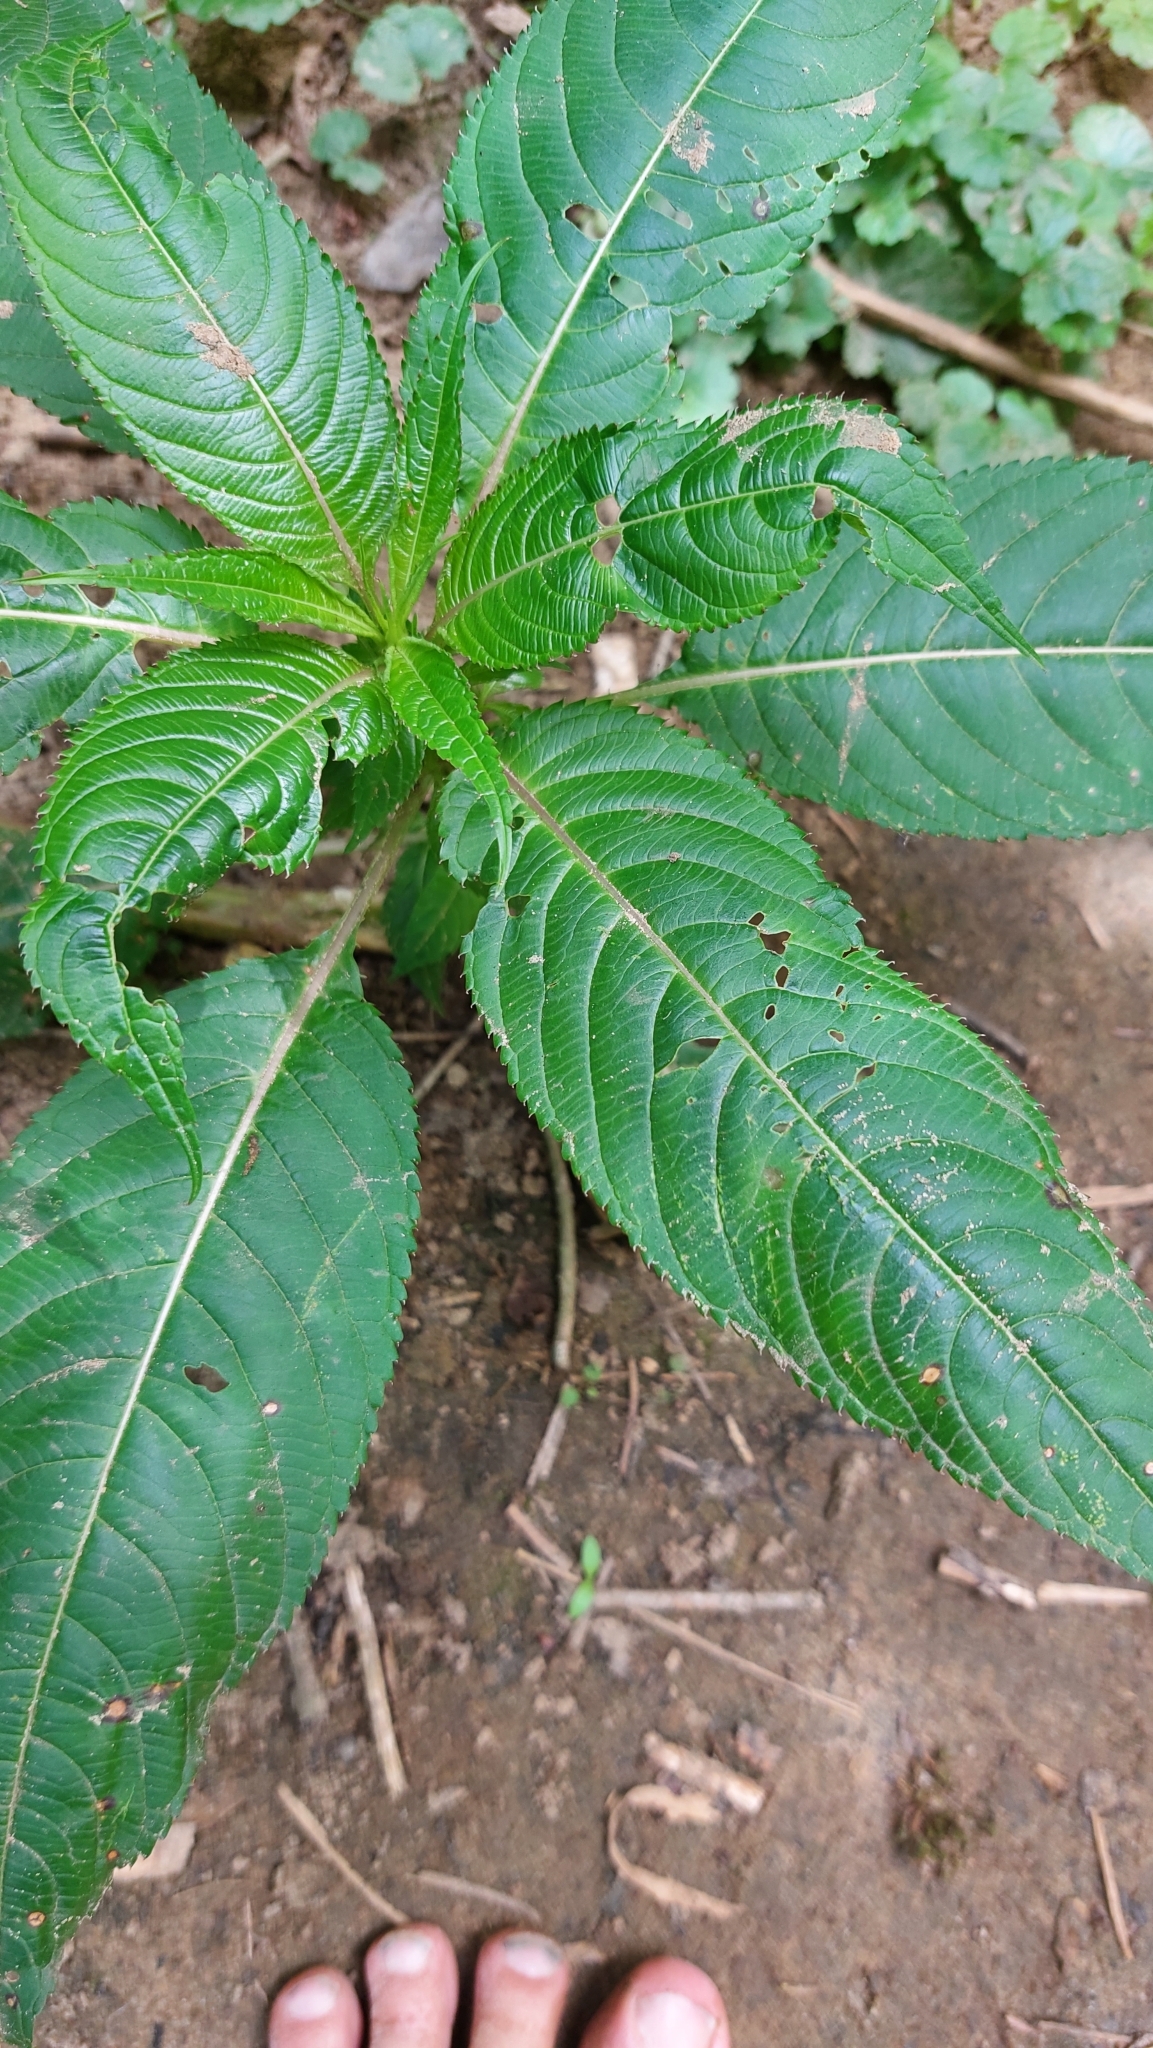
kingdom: Plantae
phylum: Tracheophyta
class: Magnoliopsida
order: Ericales
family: Balsaminaceae
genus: Impatiens
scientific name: Impatiens glandulifera
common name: Himalayan balsam
